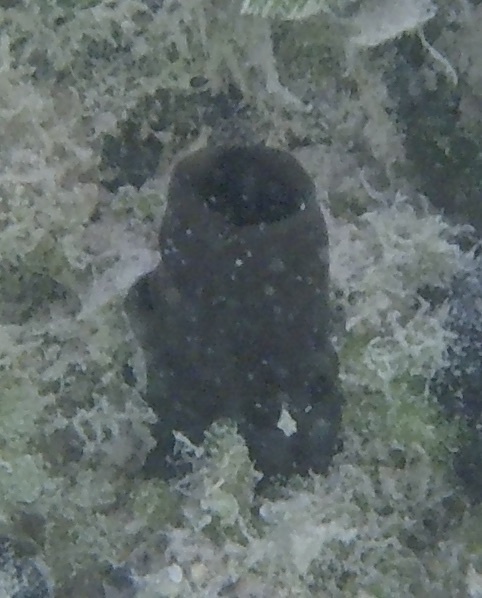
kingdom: Animalia
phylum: Porifera
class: Demospongiae
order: Clionaida
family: Clionaidae
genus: Spheciospongia
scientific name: Spheciospongia vesparium
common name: Manjack
